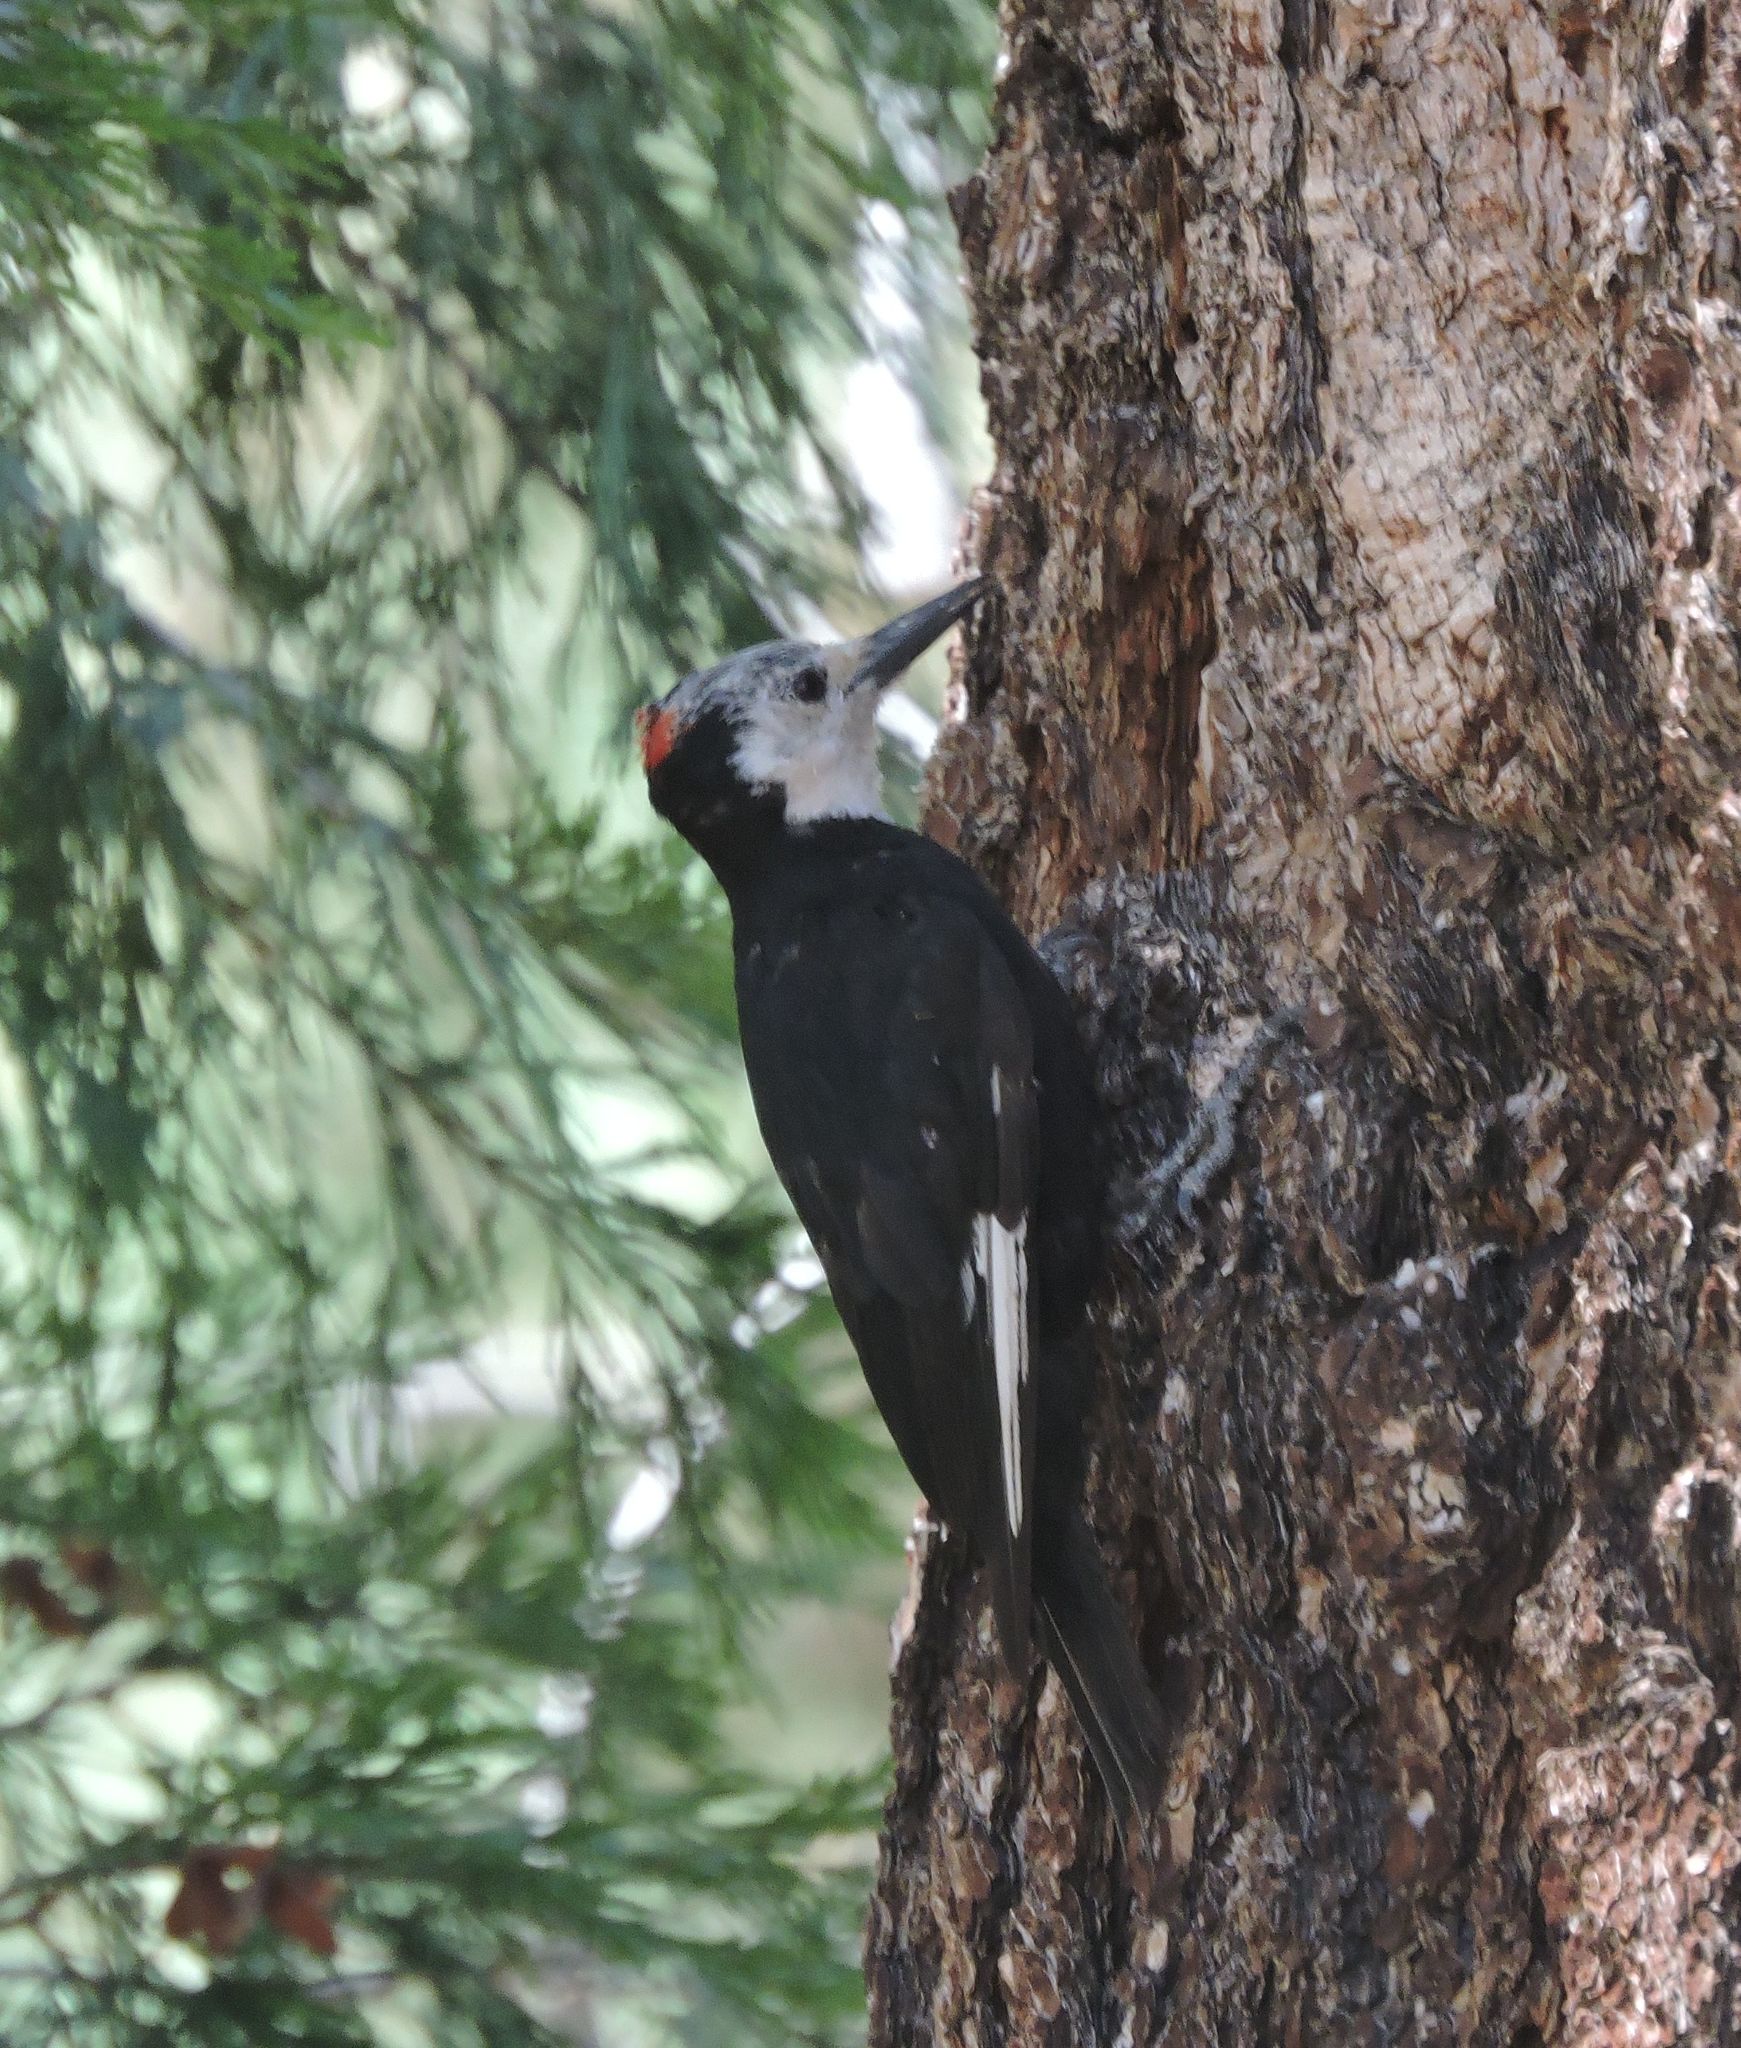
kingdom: Animalia
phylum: Chordata
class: Aves
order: Piciformes
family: Picidae
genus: Leuconotopicus
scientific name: Leuconotopicus albolarvatus
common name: White-headed woodpecker
